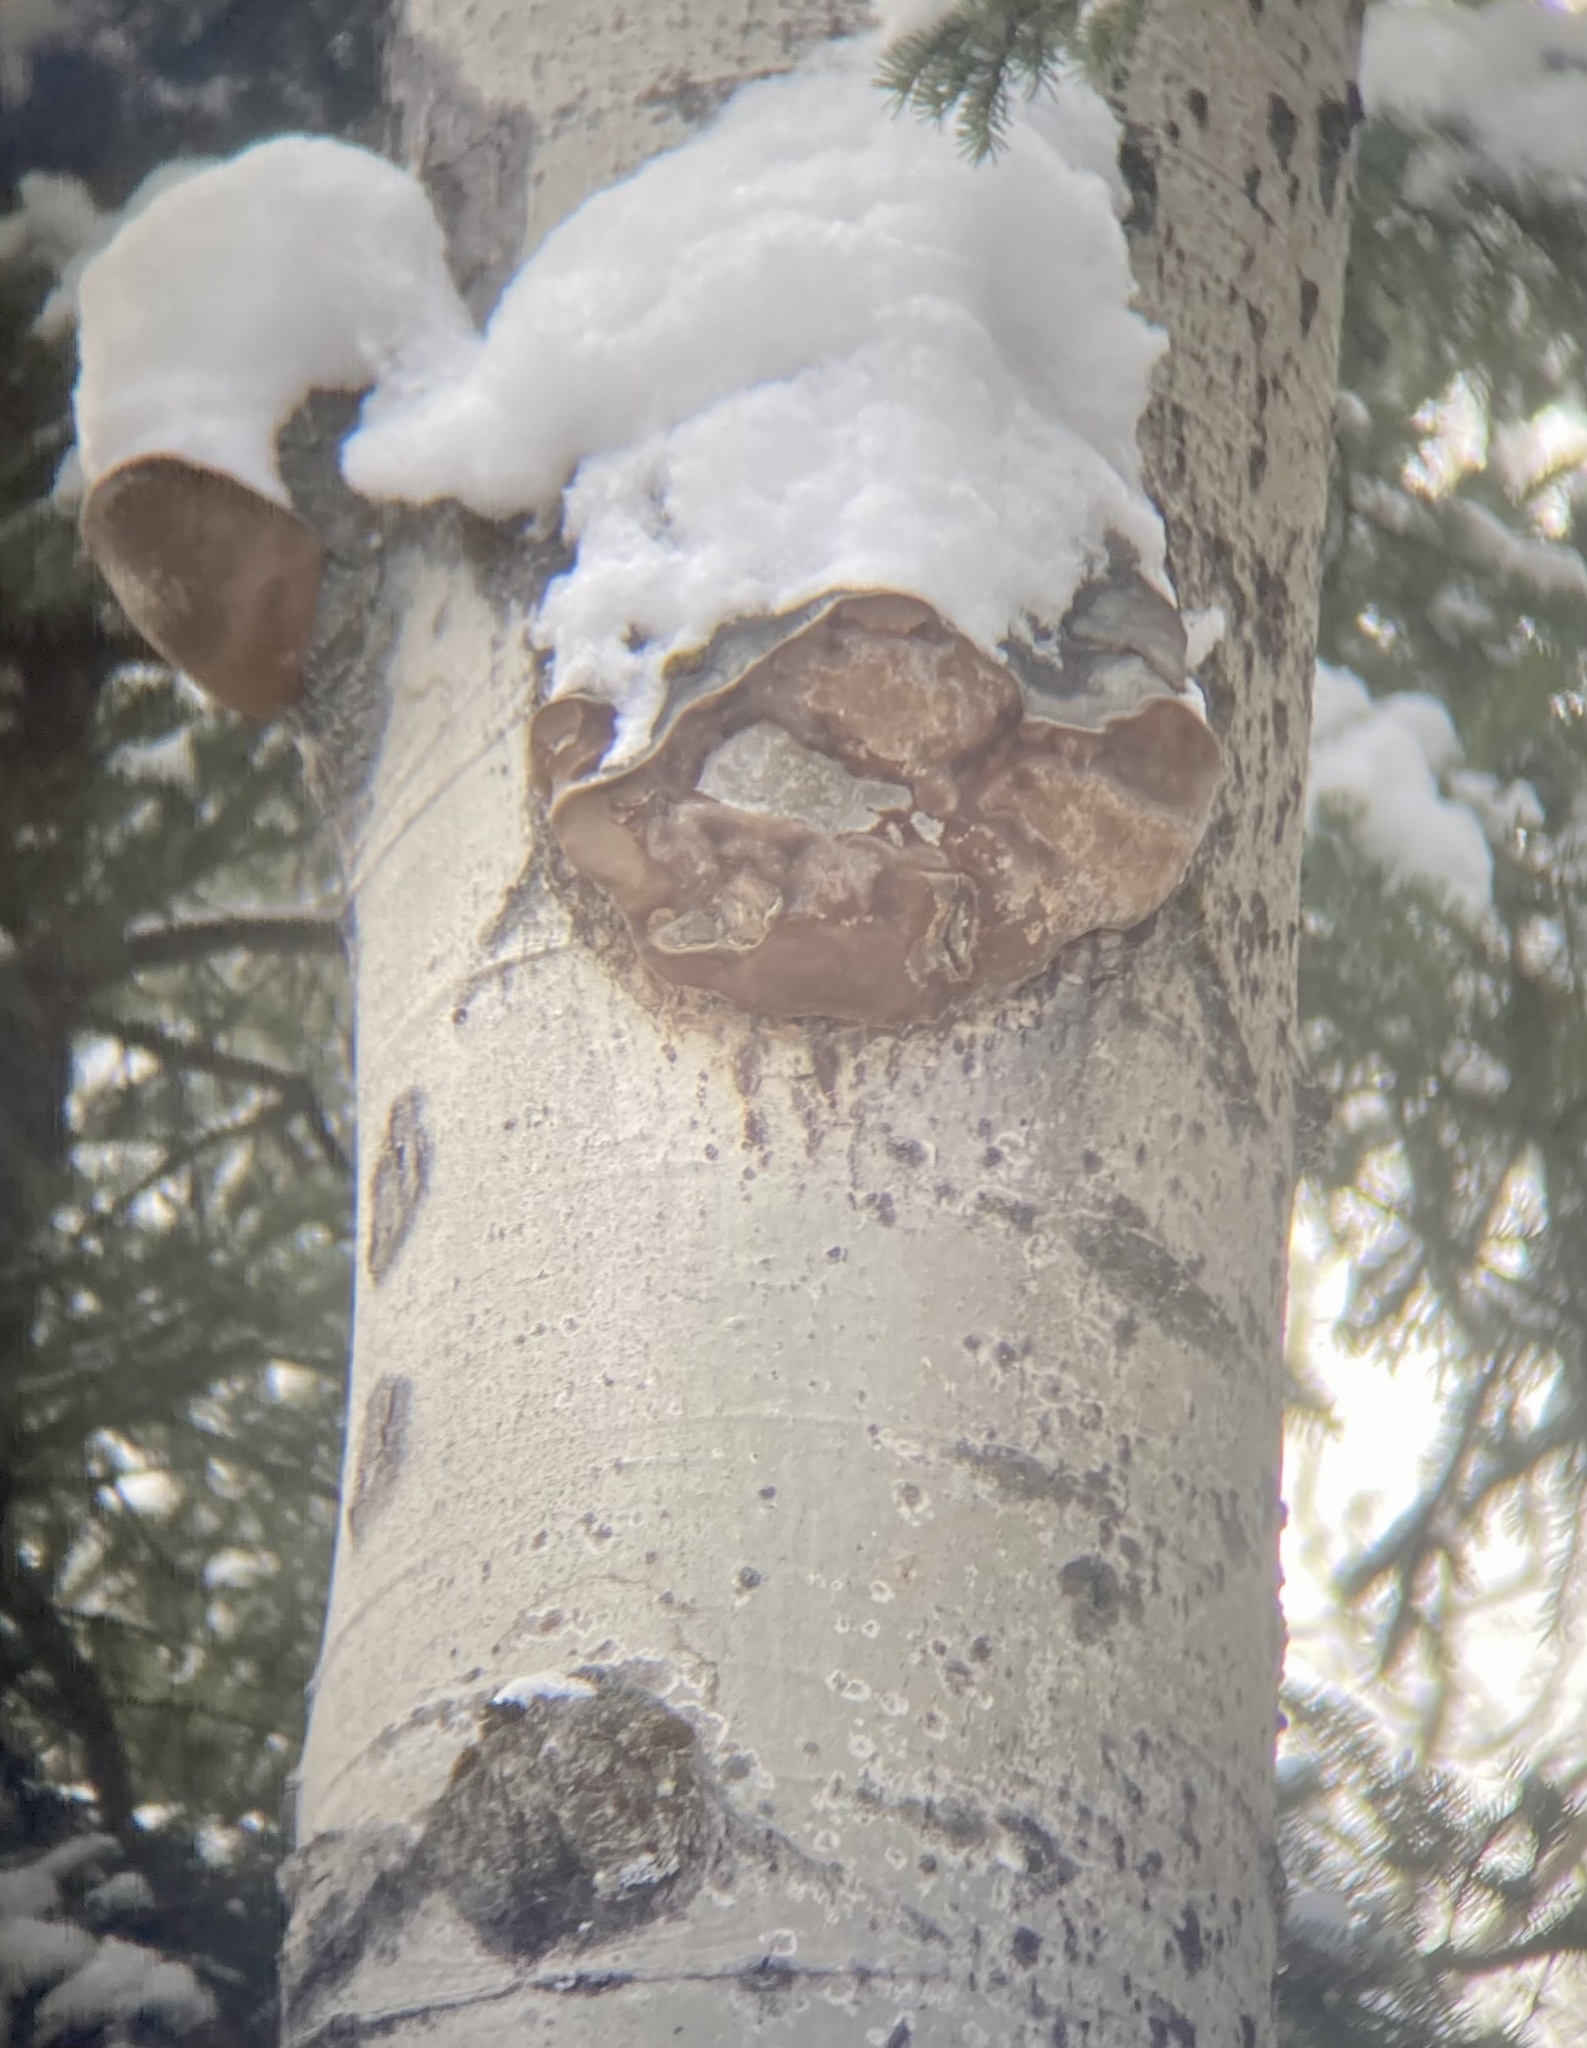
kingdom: Fungi
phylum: Basidiomycota
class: Agaricomycetes
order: Hymenochaetales
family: Hymenochaetaceae
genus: Phellinus
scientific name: Phellinus tremulae
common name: Aspen bracket
